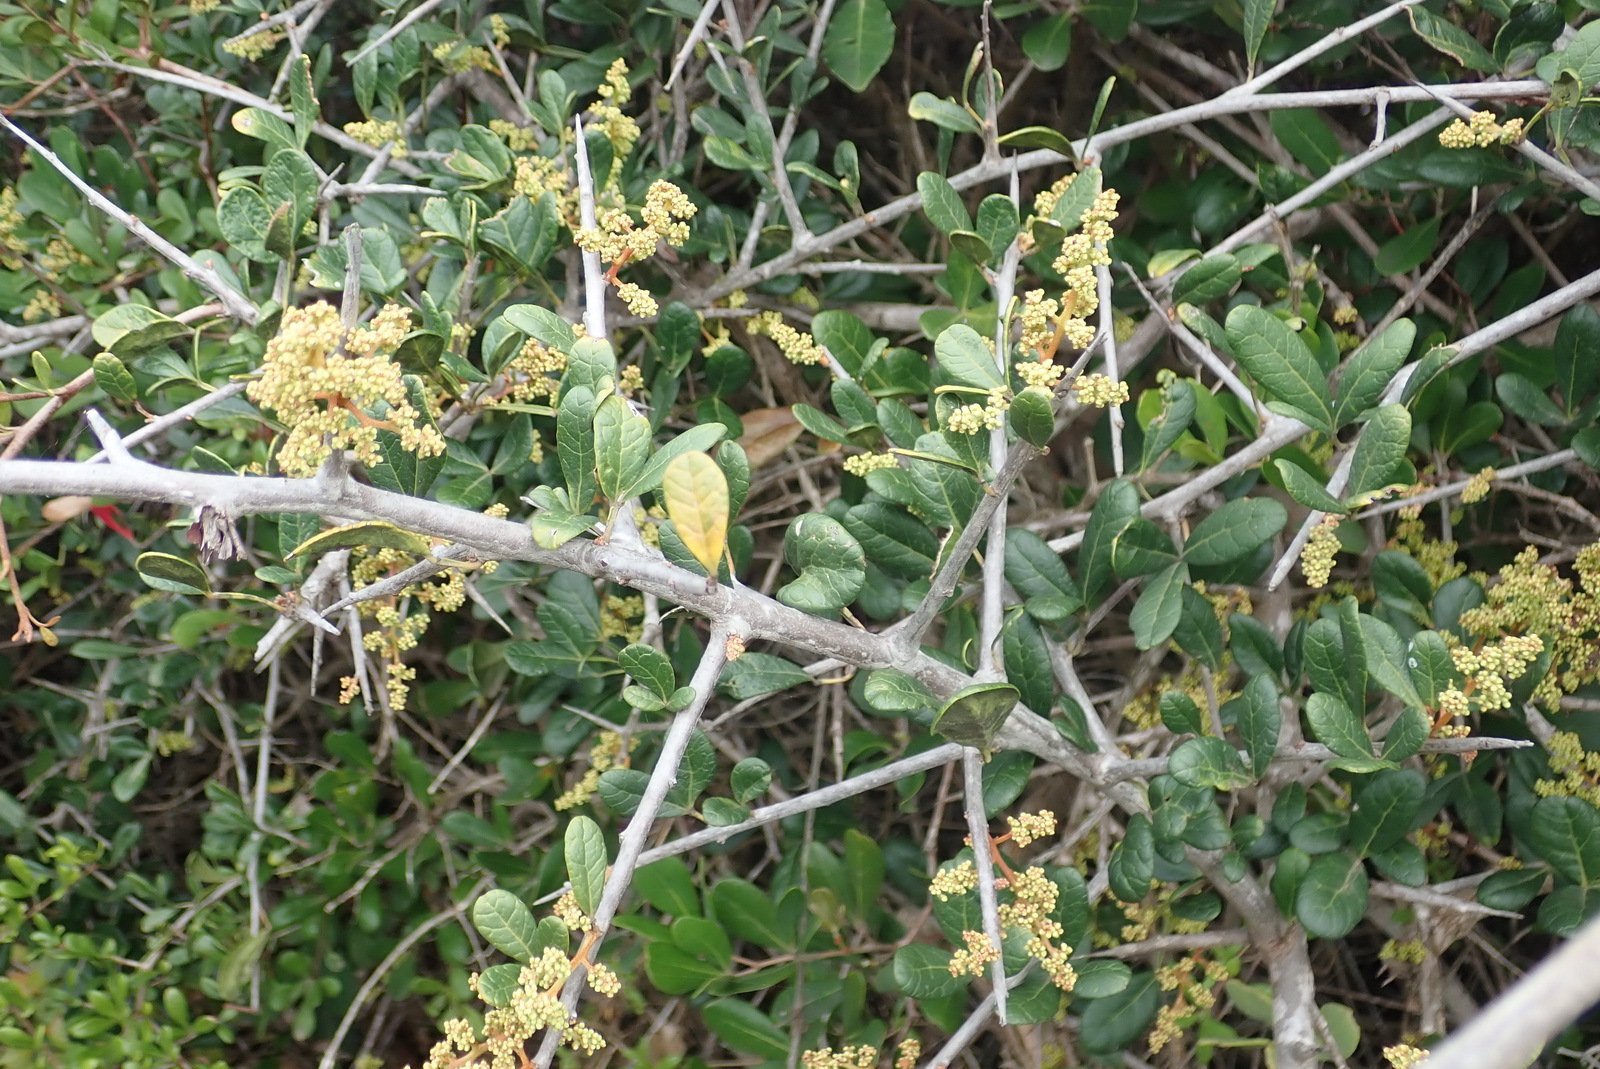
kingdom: Plantae
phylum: Tracheophyta
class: Magnoliopsida
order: Sapindales
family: Anacardiaceae
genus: Searsia
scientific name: Searsia pterota
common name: Winged currant
